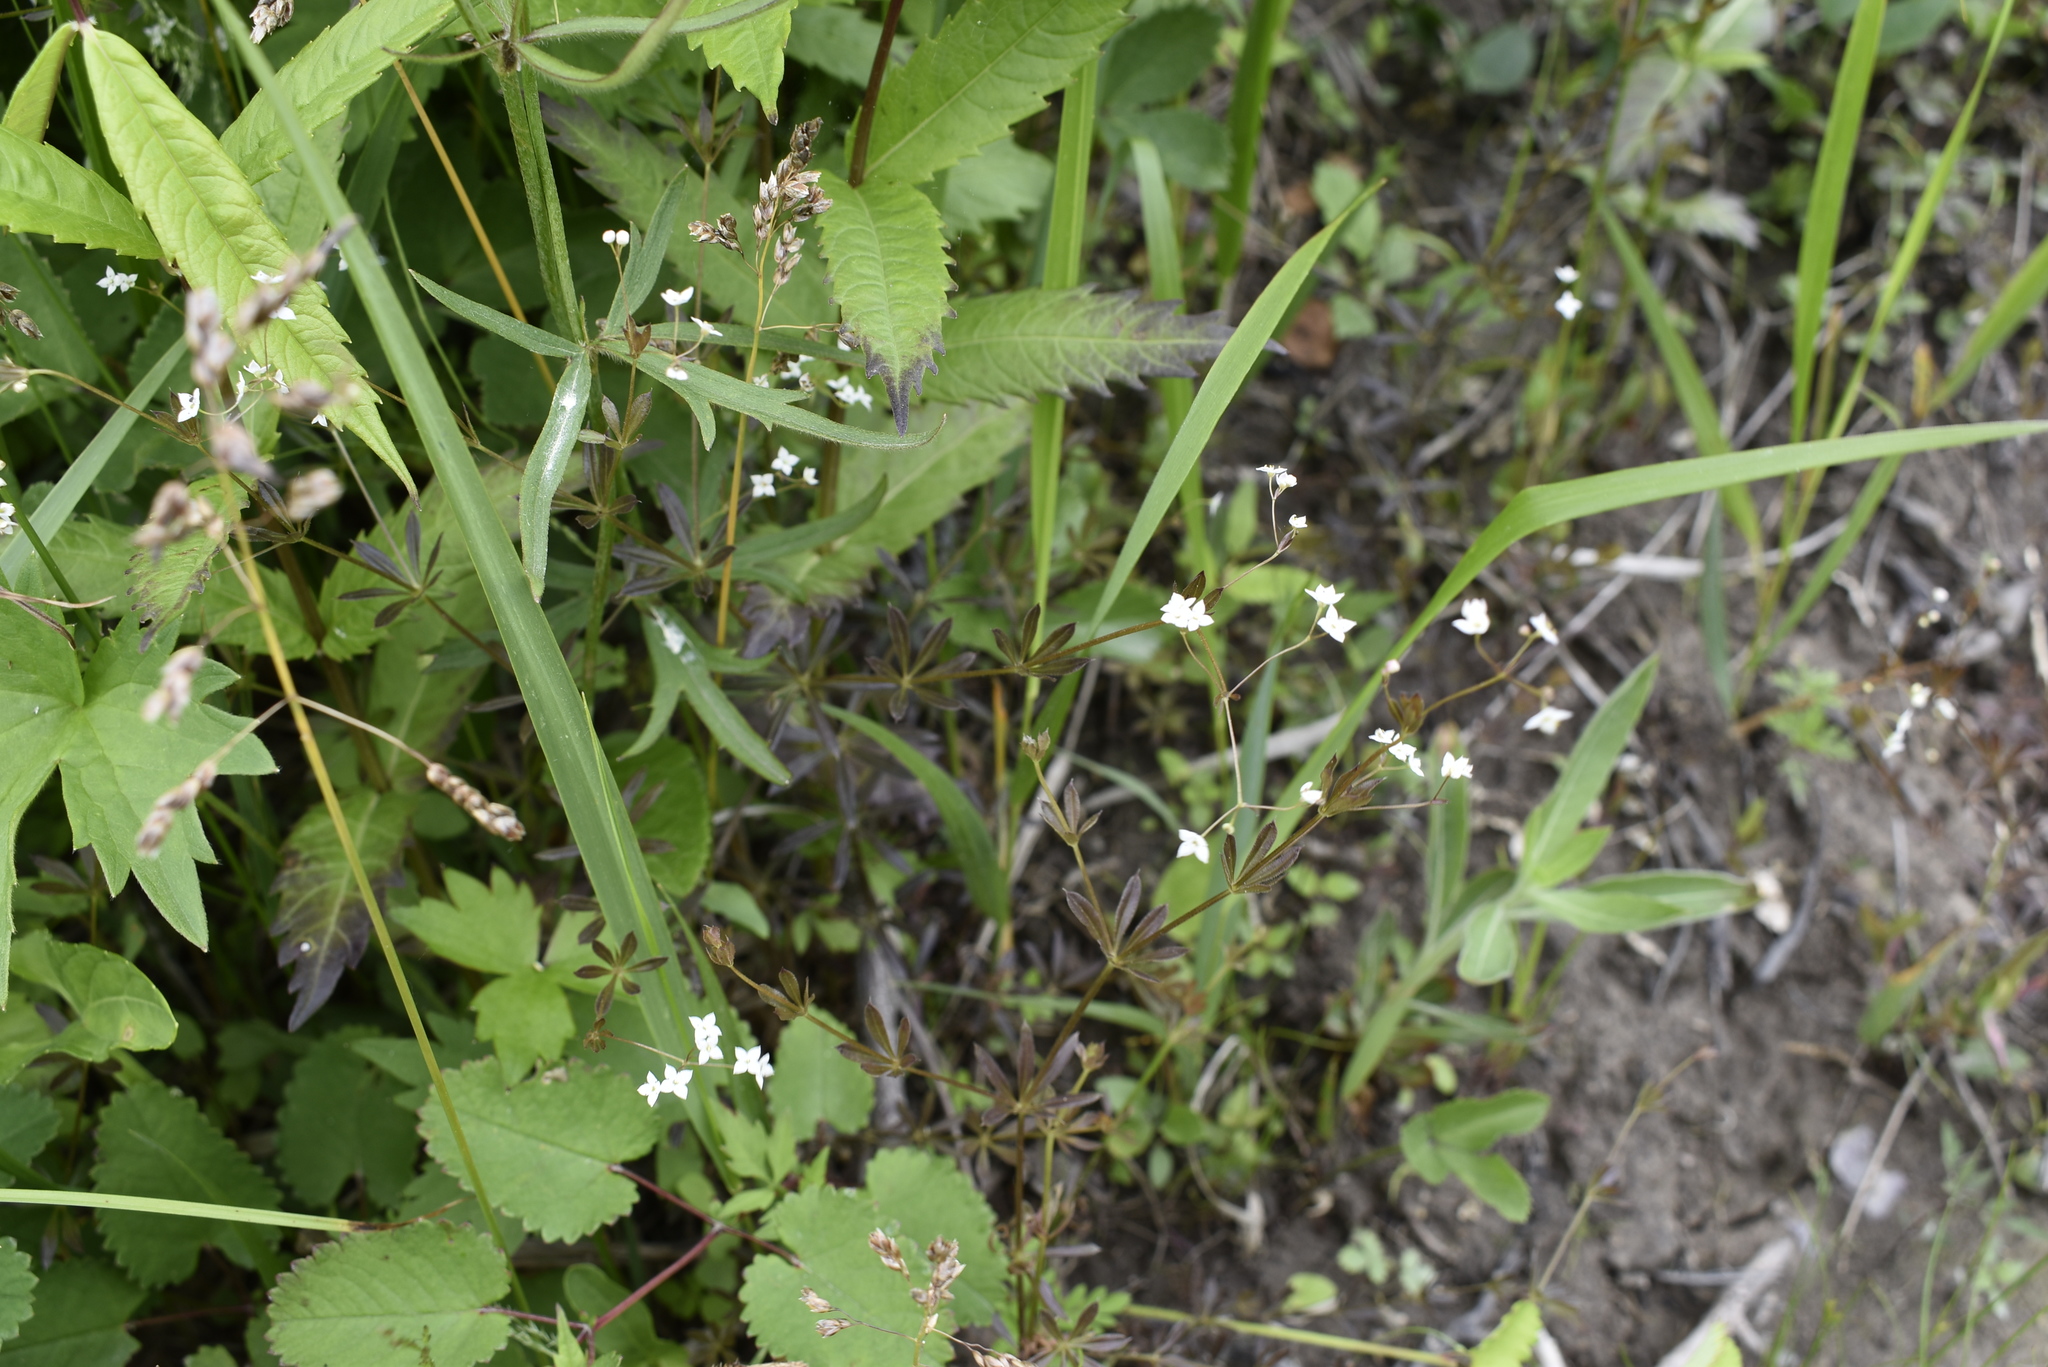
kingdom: Plantae
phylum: Tracheophyta
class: Magnoliopsida
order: Gentianales
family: Rubiaceae
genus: Galium
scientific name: Galium dahuricum
